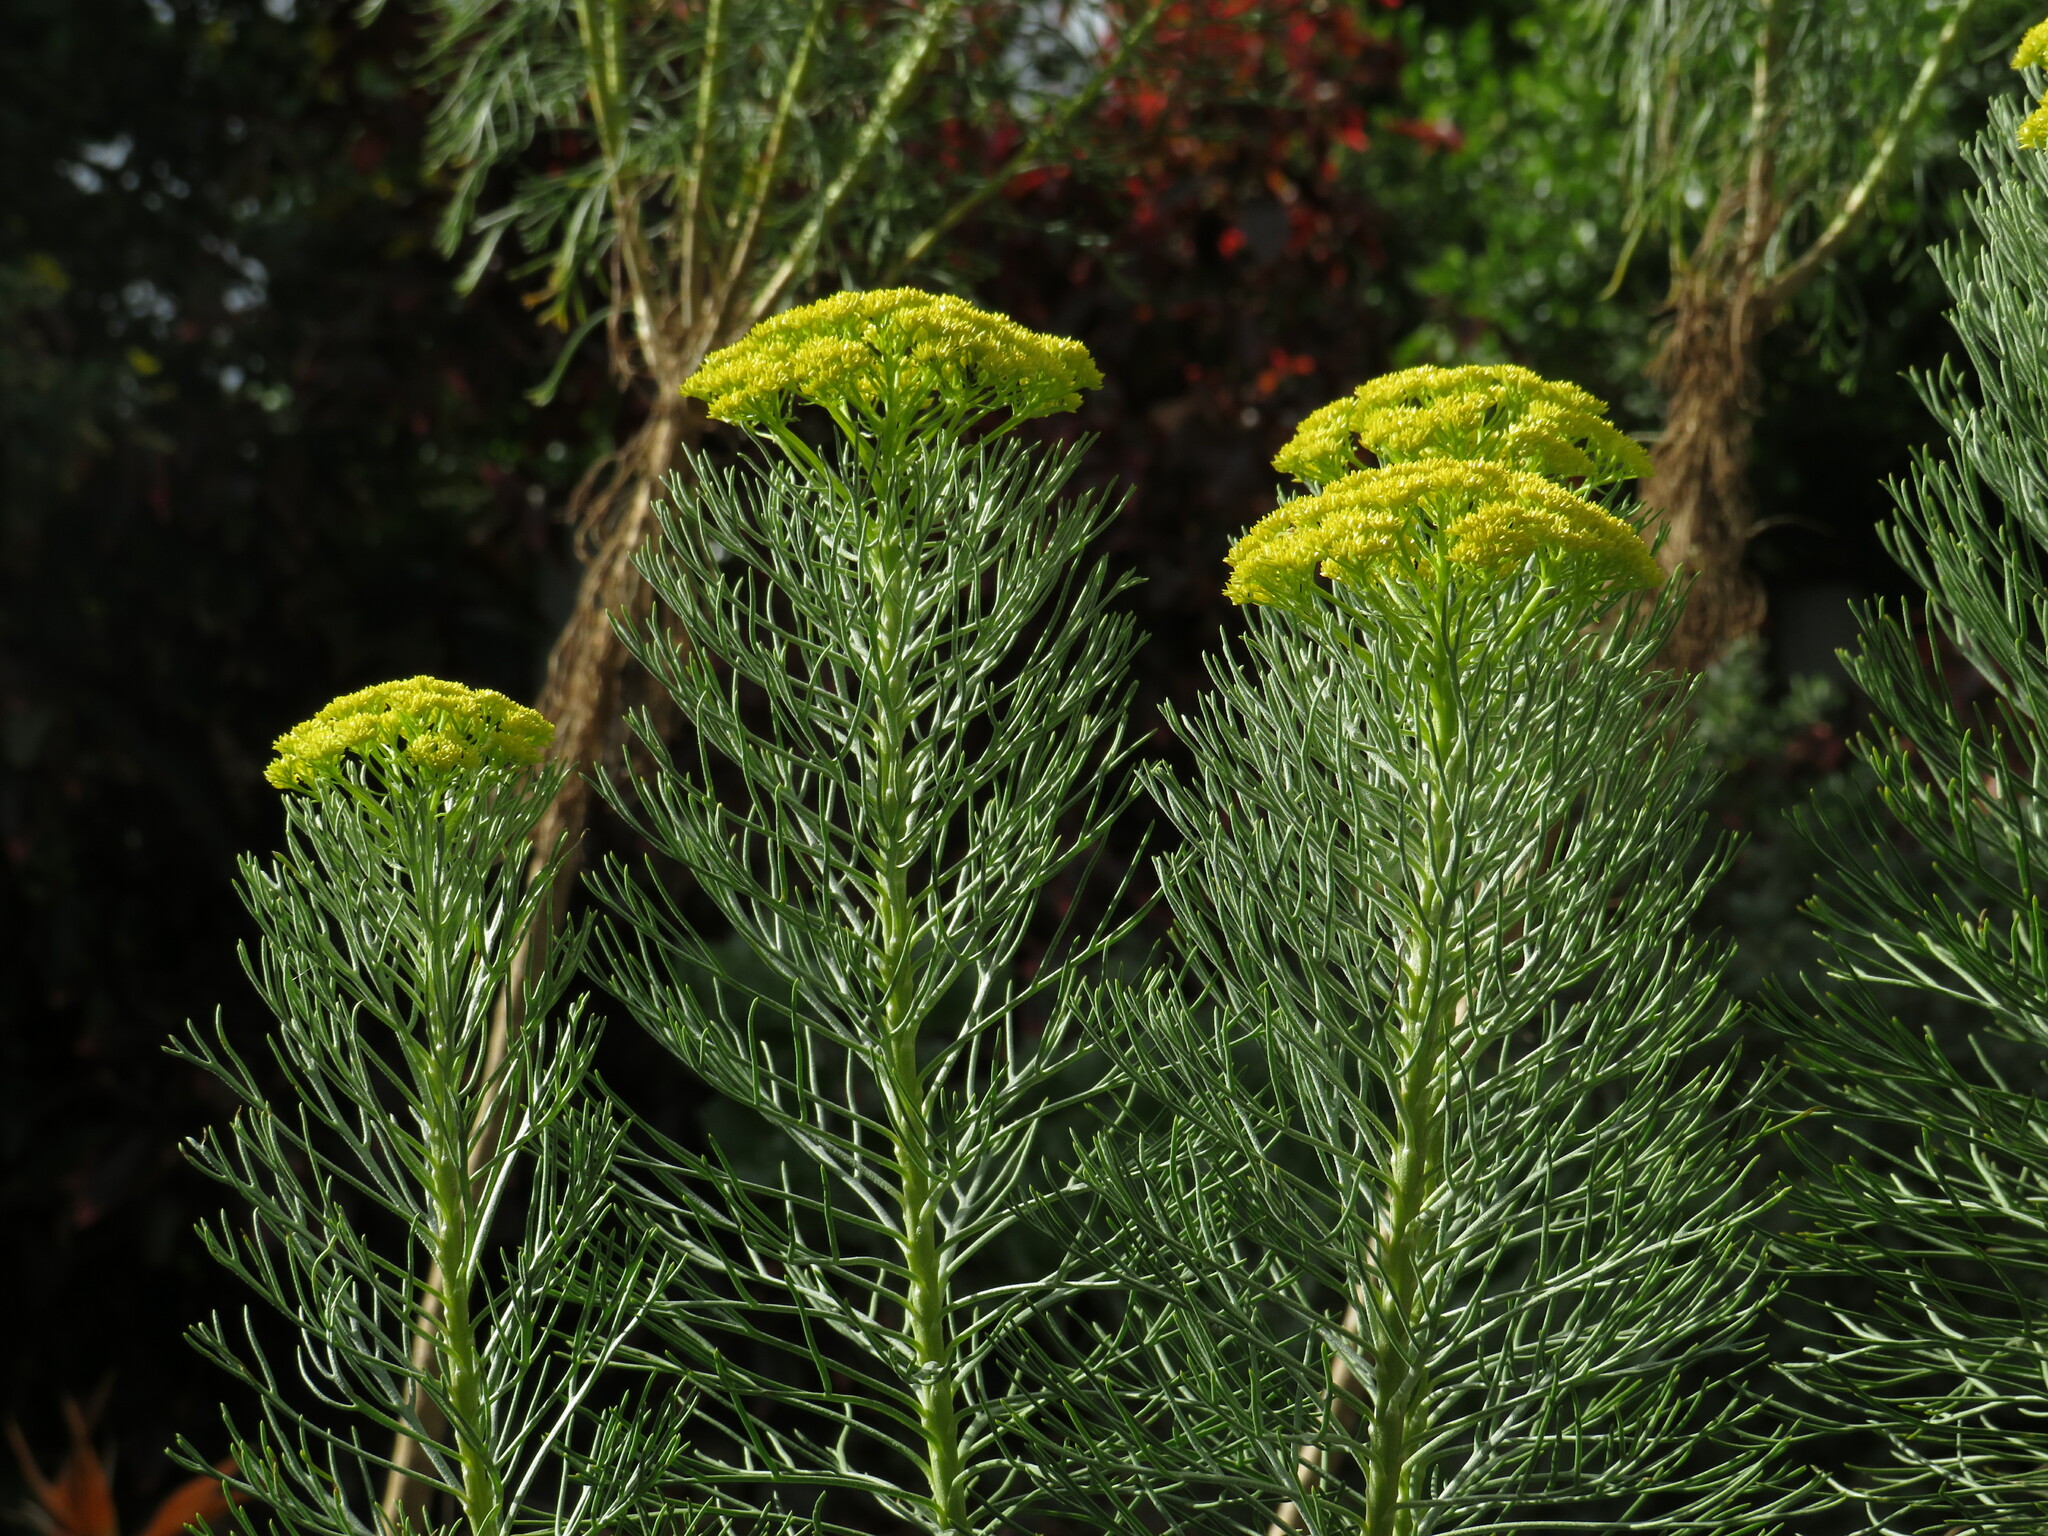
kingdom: Plantae
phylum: Tracheophyta
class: Magnoliopsida
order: Asterales
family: Asteraceae
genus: Hymenolepis
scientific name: Hymenolepis crithmifolia
